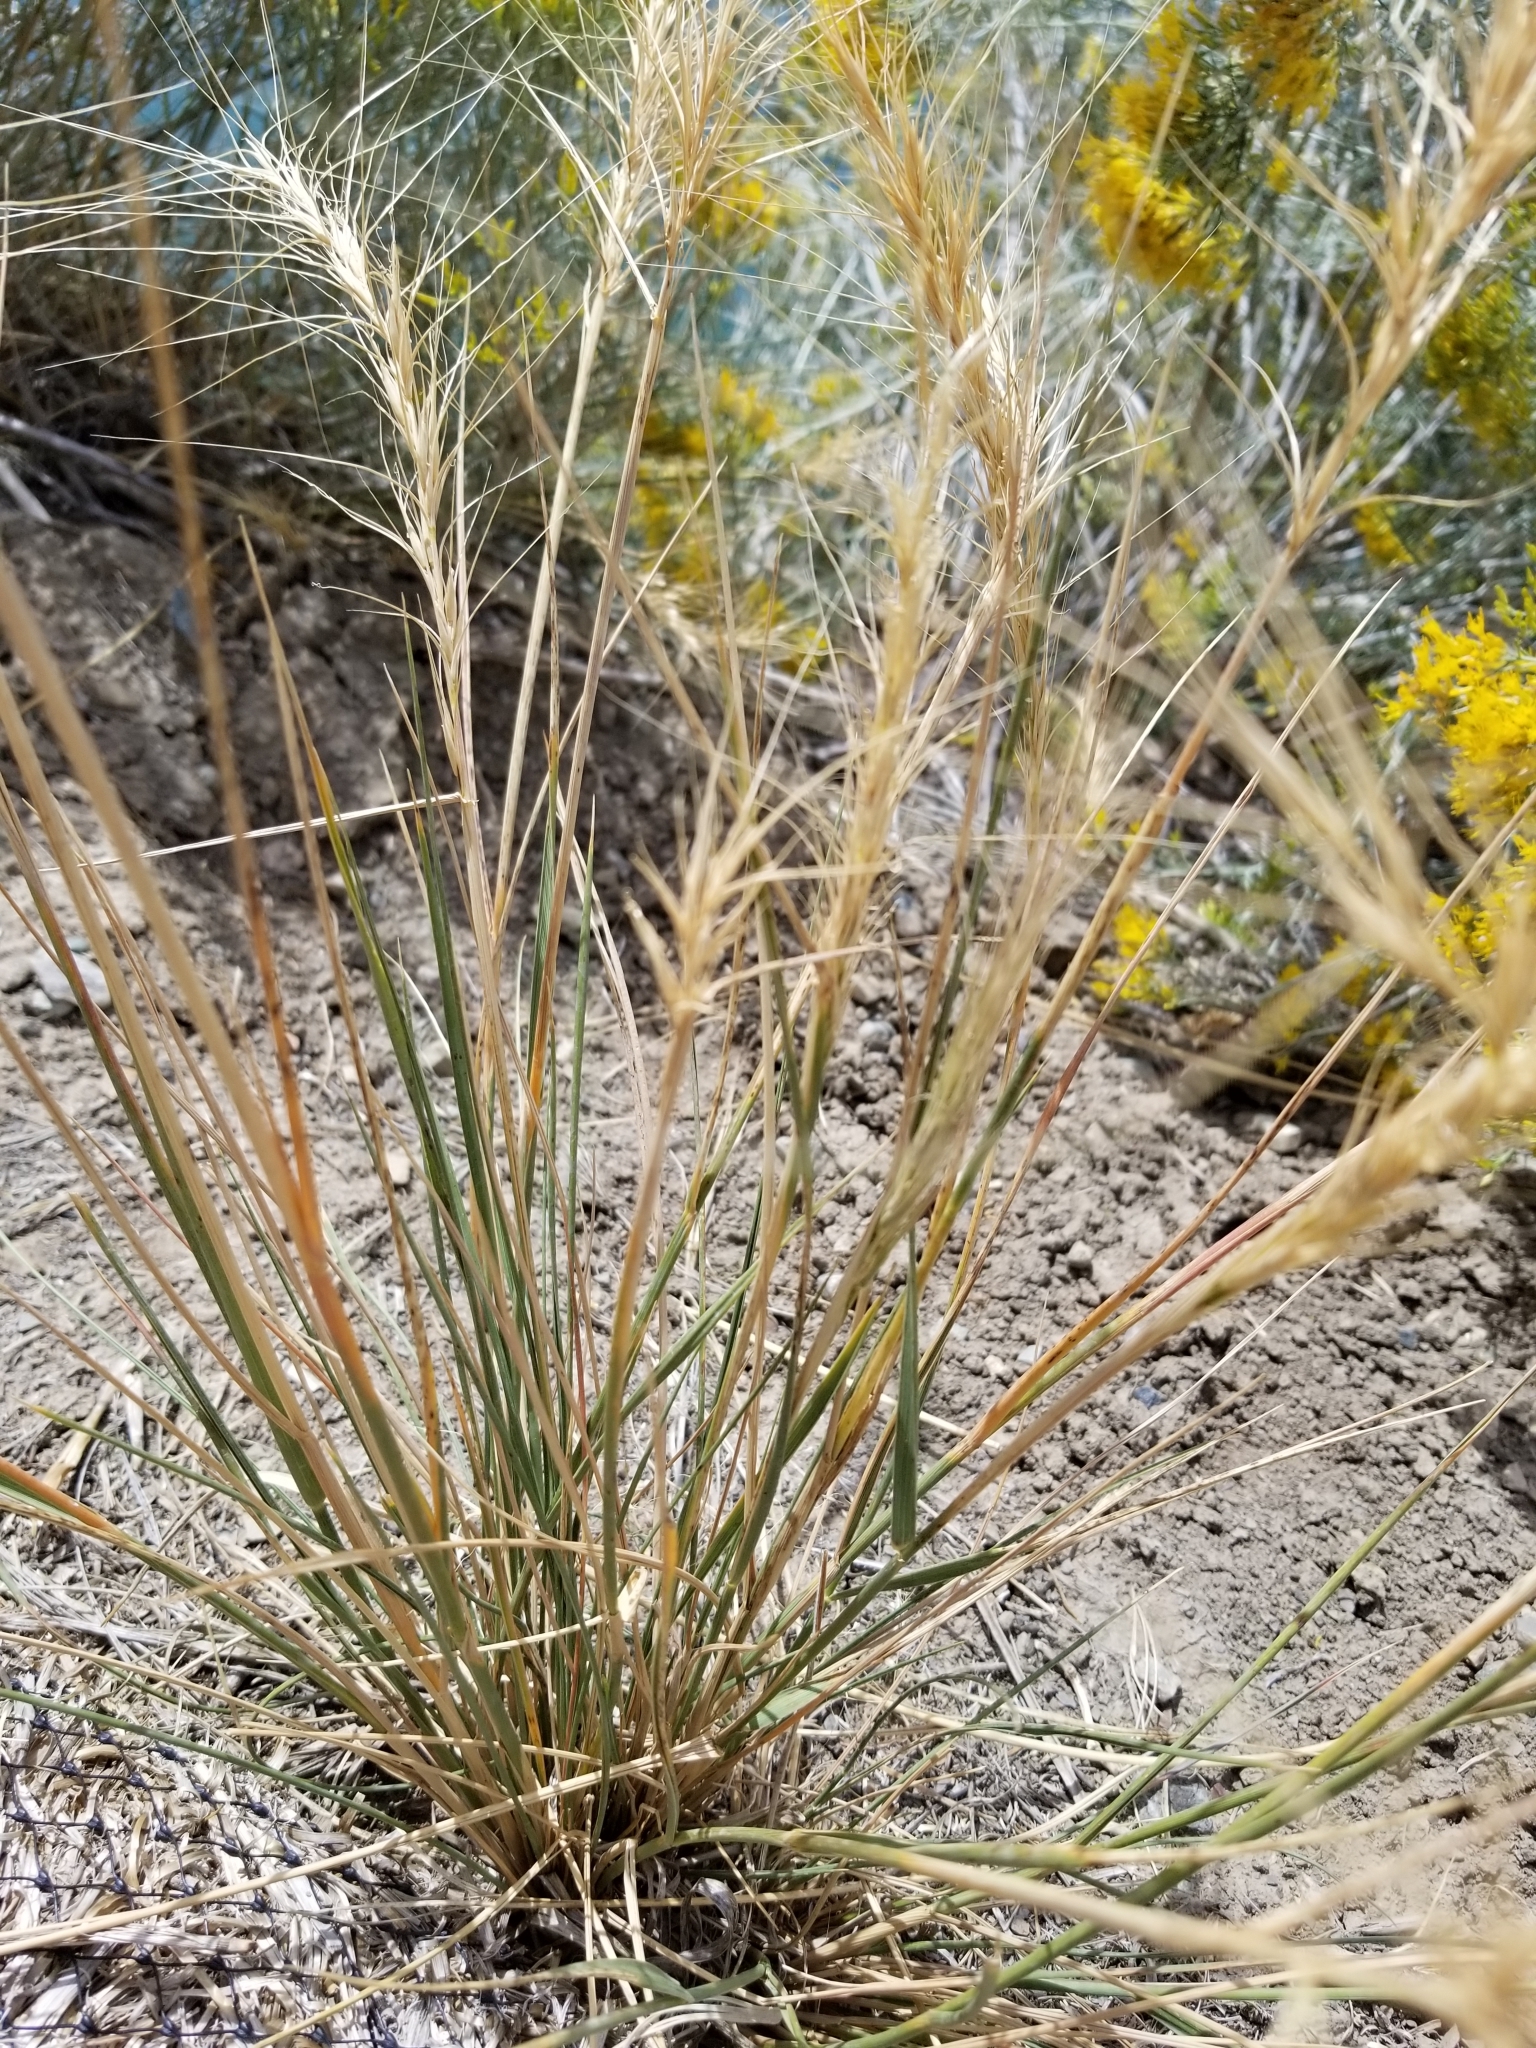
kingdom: Plantae
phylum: Tracheophyta
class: Liliopsida
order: Poales
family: Poaceae
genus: Elymus
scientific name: Elymus elymoides
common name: Bottlebrush squirreltail
